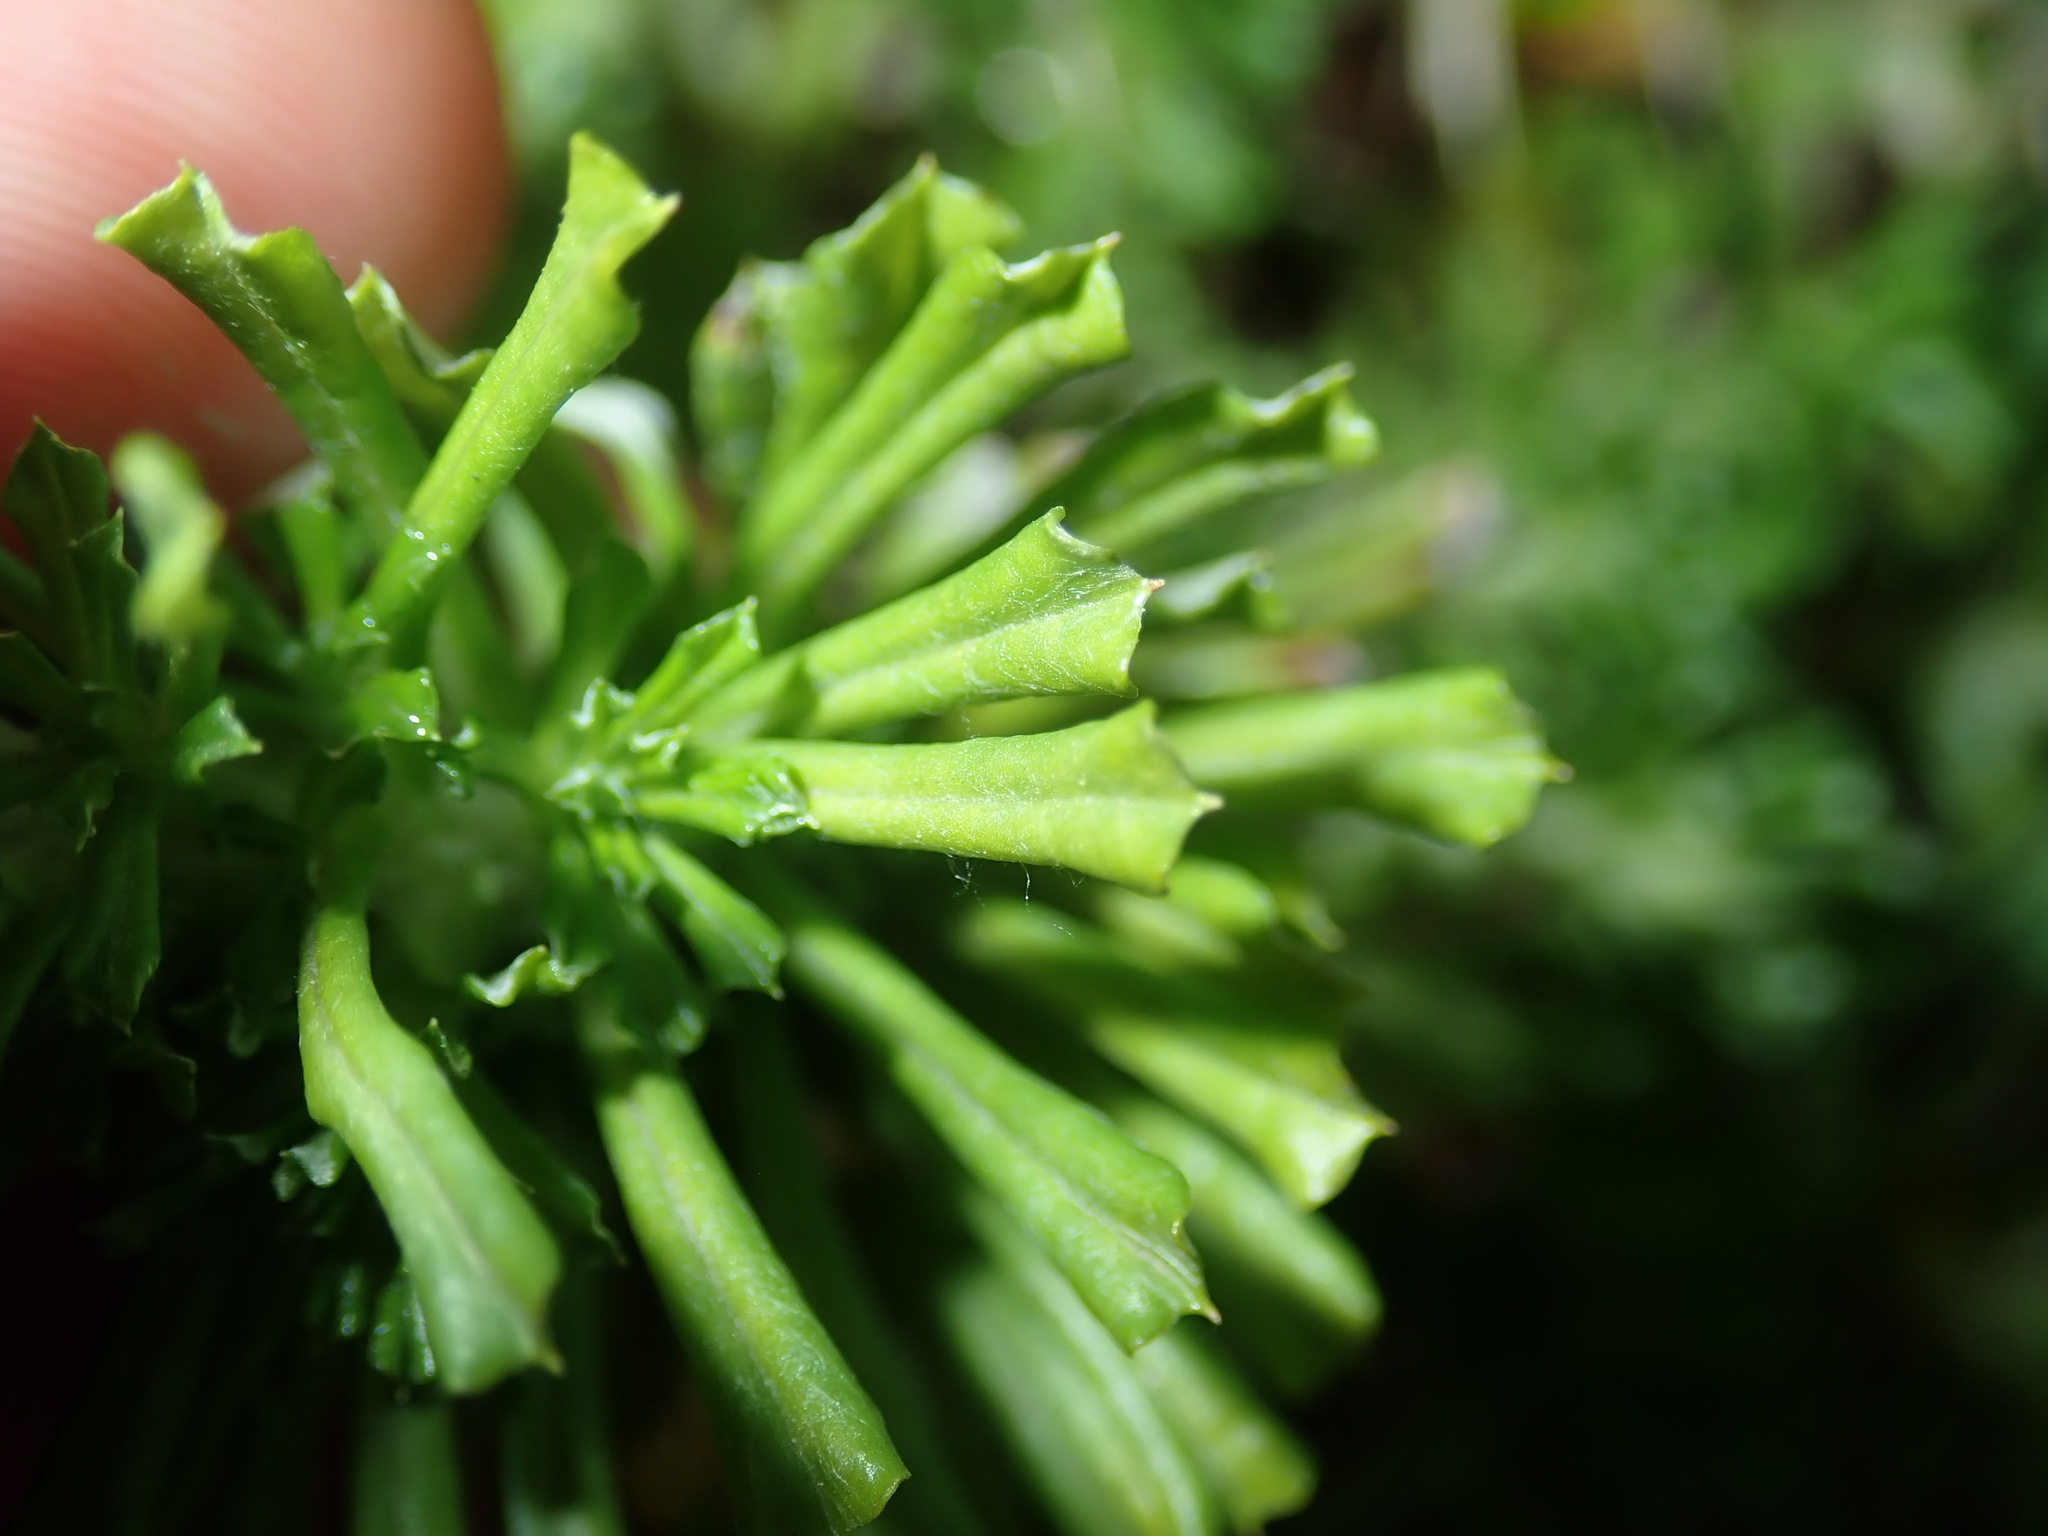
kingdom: Plantae
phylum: Tracheophyta
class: Magnoliopsida
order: Asterales
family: Asteraceae
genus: Facelis
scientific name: Facelis retusa
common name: Annual trampweed
